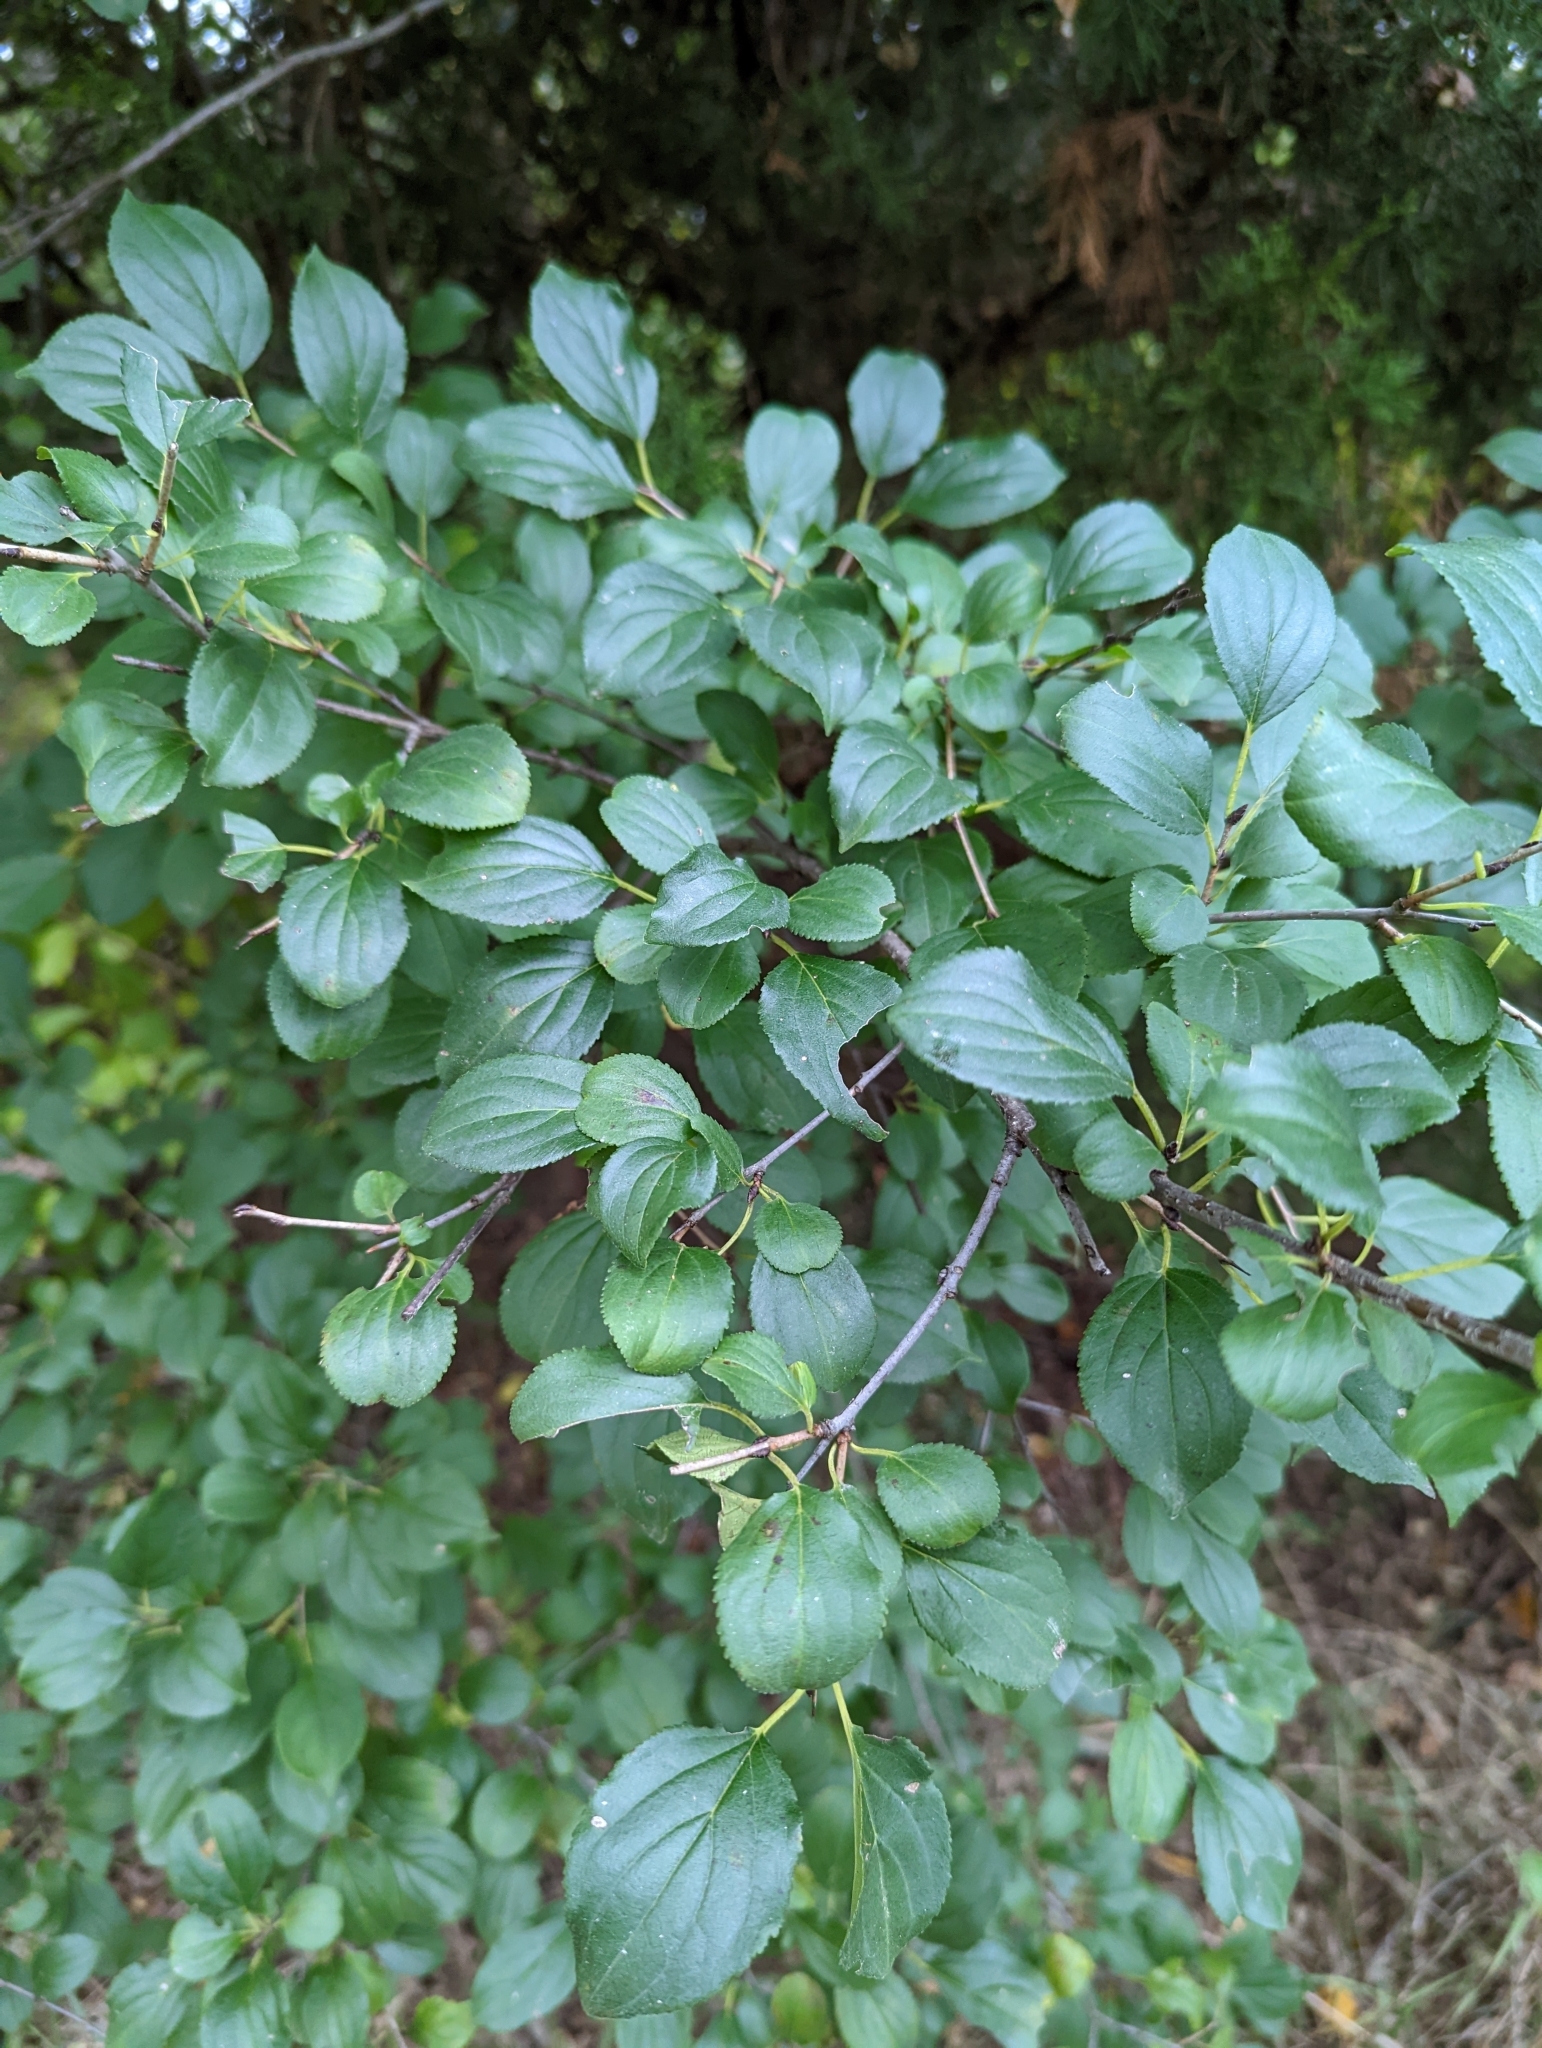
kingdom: Plantae
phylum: Tracheophyta
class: Magnoliopsida
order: Rosales
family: Rhamnaceae
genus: Rhamnus
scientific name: Rhamnus cathartica
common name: Common buckthorn
